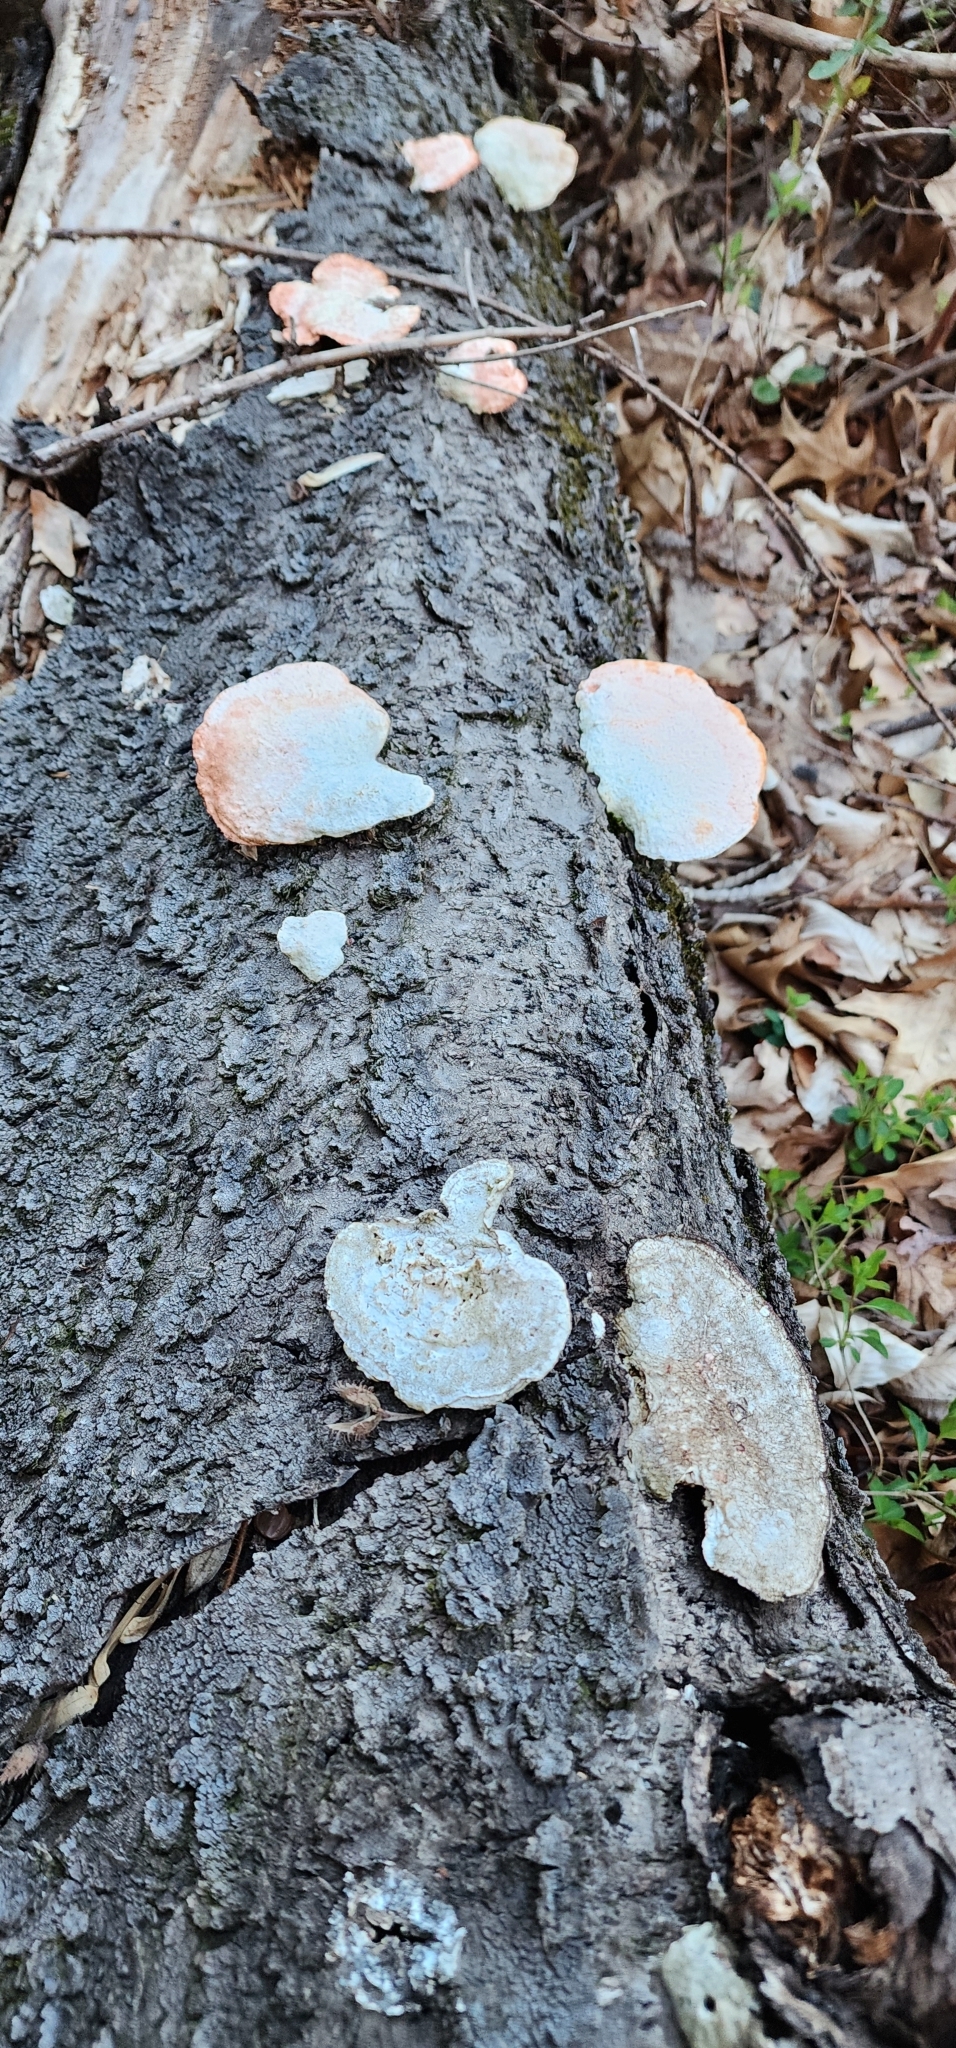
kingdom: Fungi
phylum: Basidiomycota
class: Agaricomycetes
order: Polyporales
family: Polyporaceae
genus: Trametes
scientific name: Trametes cinnabarina
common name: Northern cinnabar polypore
